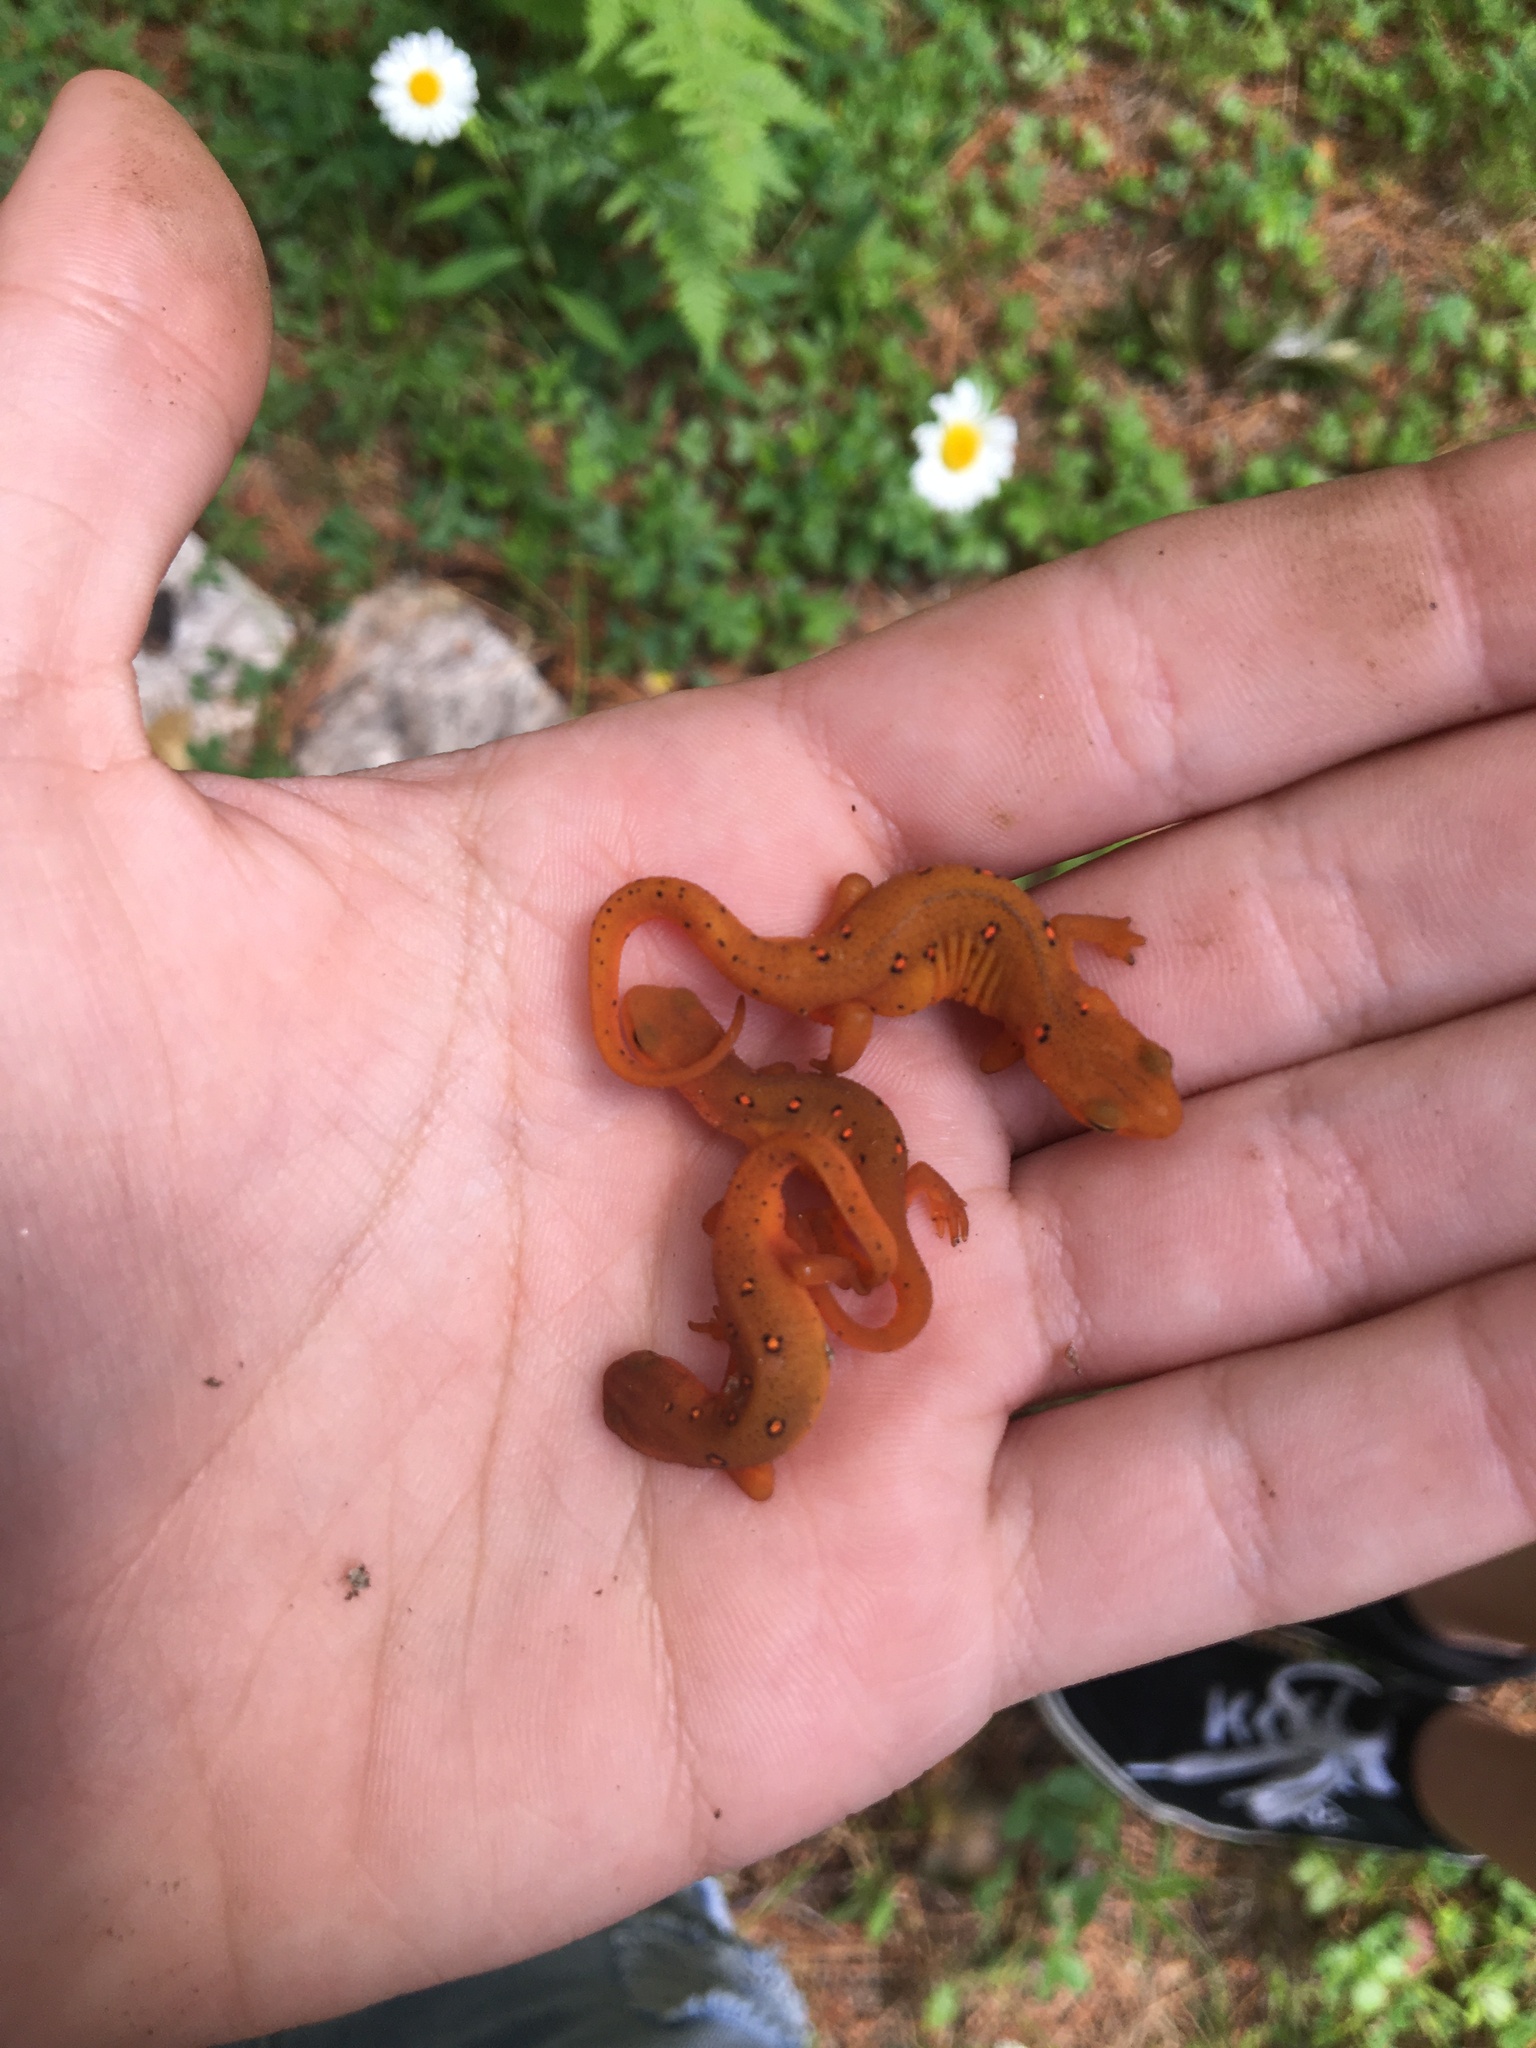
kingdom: Animalia
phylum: Chordata
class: Amphibia
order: Caudata
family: Salamandridae
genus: Notophthalmus
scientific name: Notophthalmus viridescens
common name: Eastern newt
